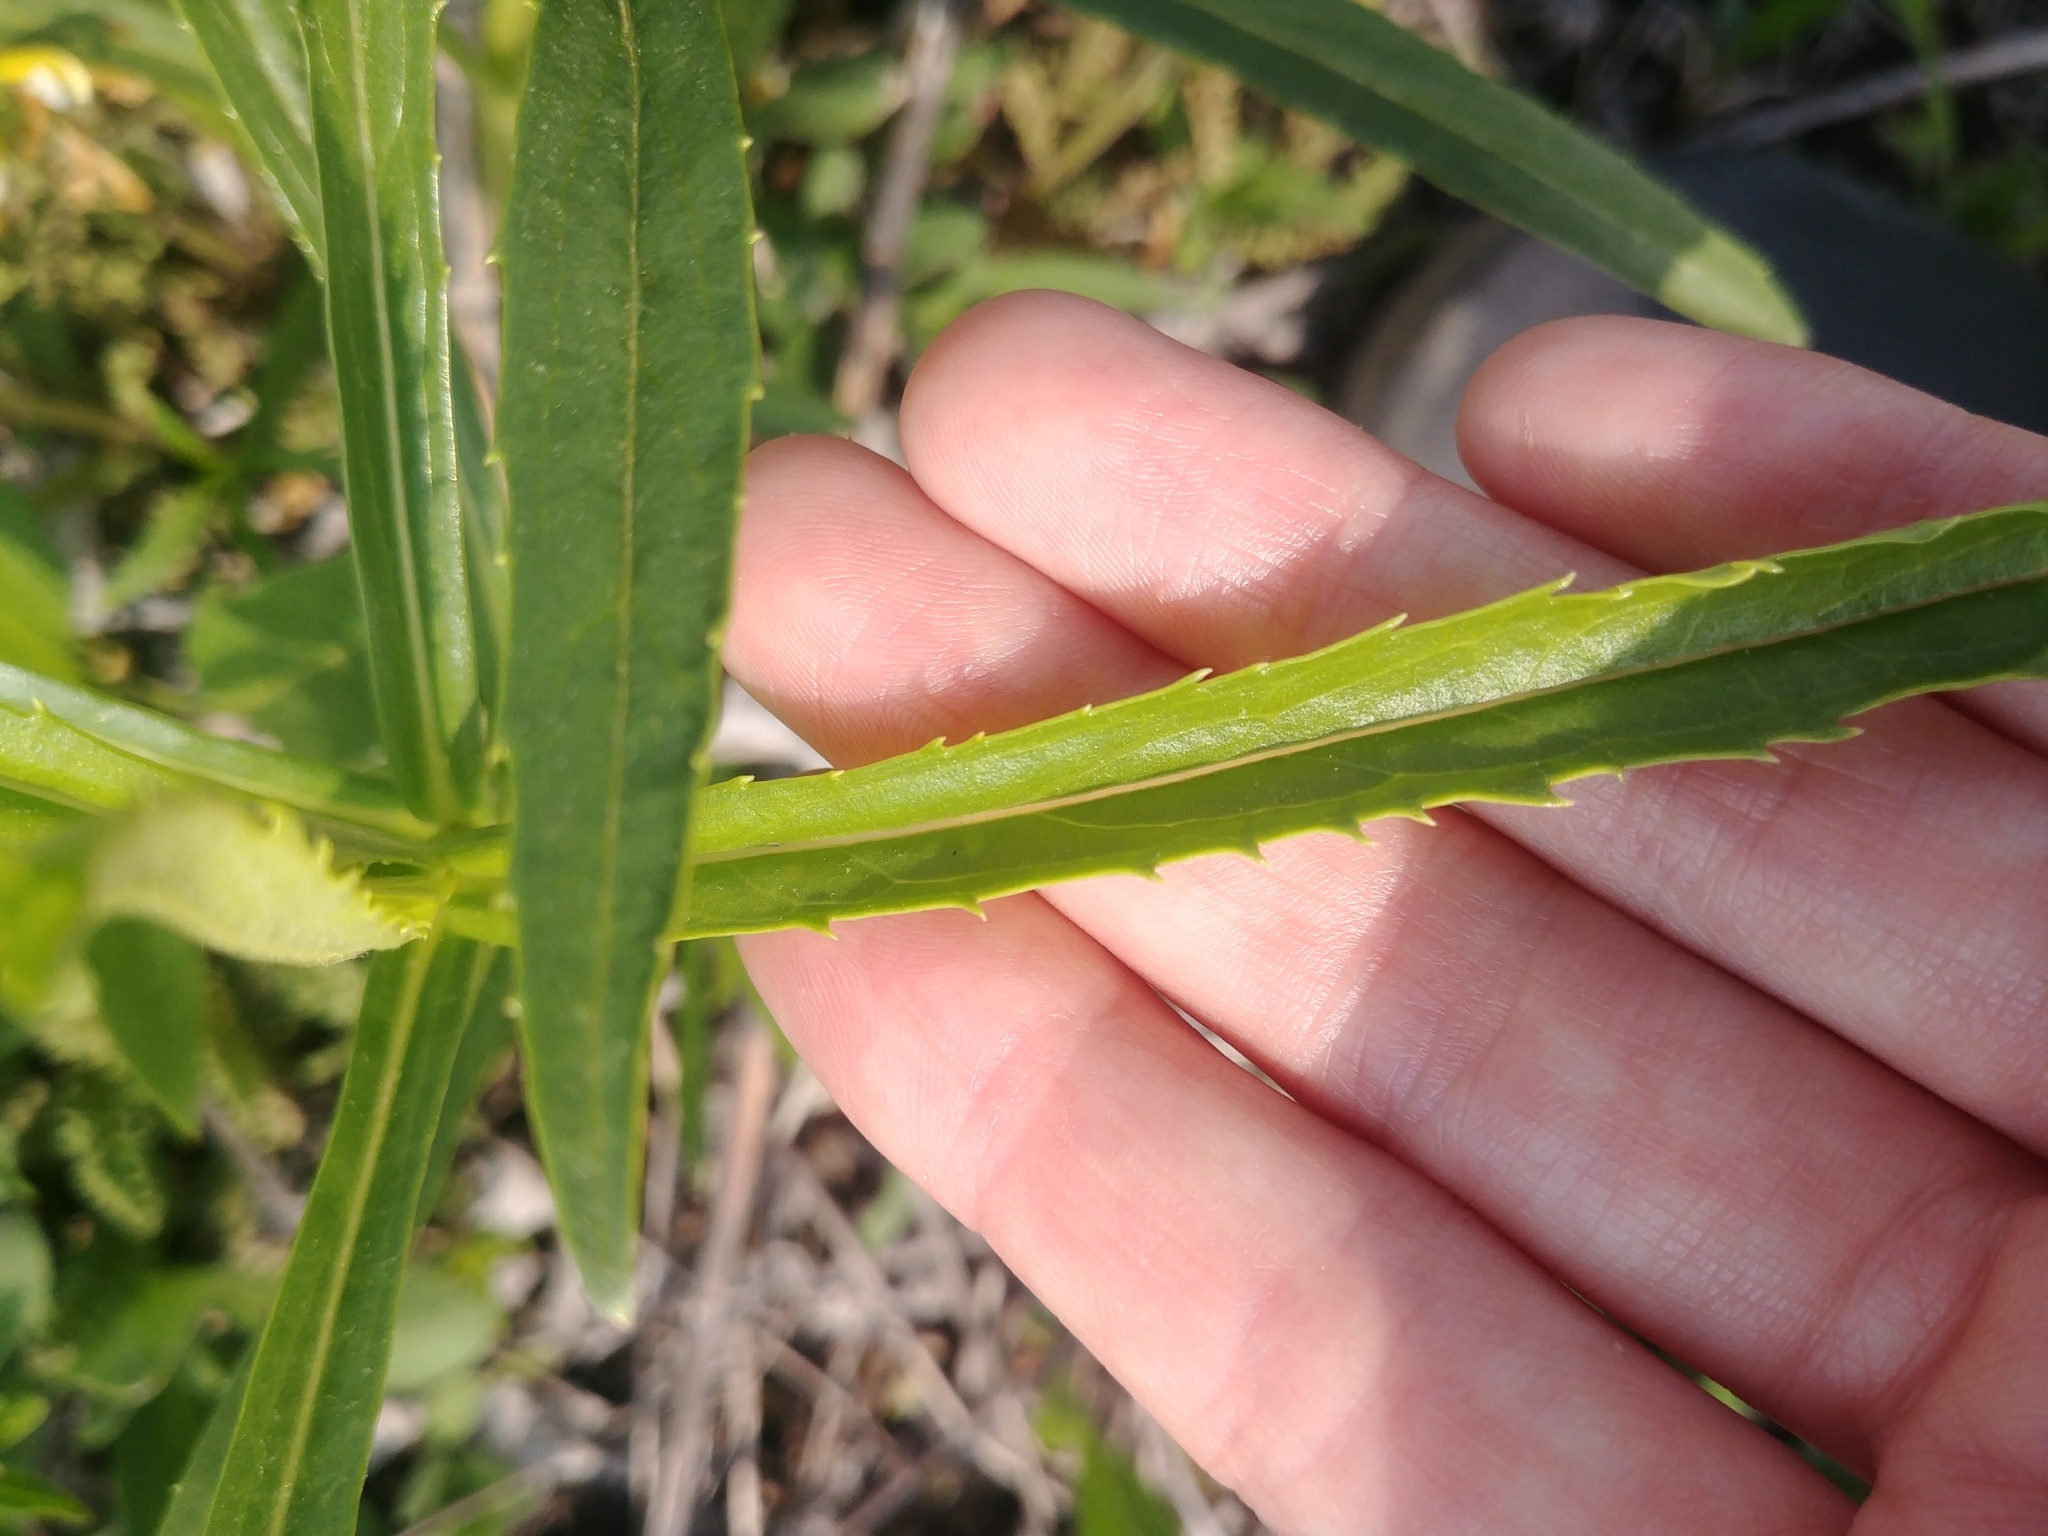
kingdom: Plantae
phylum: Tracheophyta
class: Magnoliopsida
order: Lamiales
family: Lamiaceae
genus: Physostegia
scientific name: Physostegia virginiana
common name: Obedient-plant
